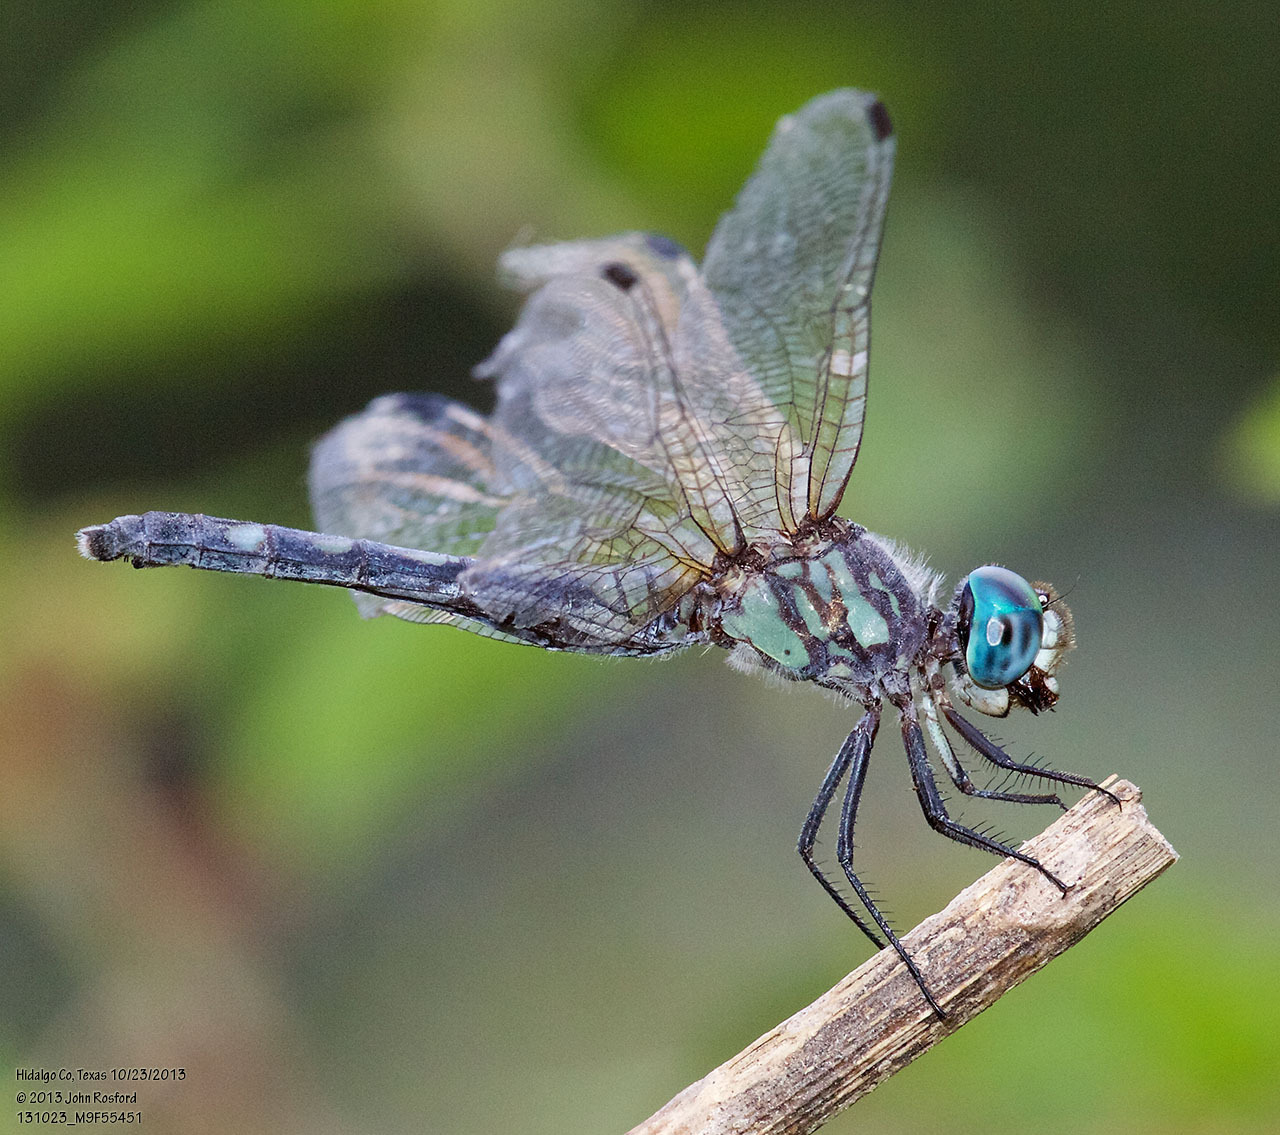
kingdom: Animalia
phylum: Arthropoda
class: Insecta
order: Odonata
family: Libellulidae
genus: Micrathyria
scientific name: Micrathyria hagenii
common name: Thornbush dasher
